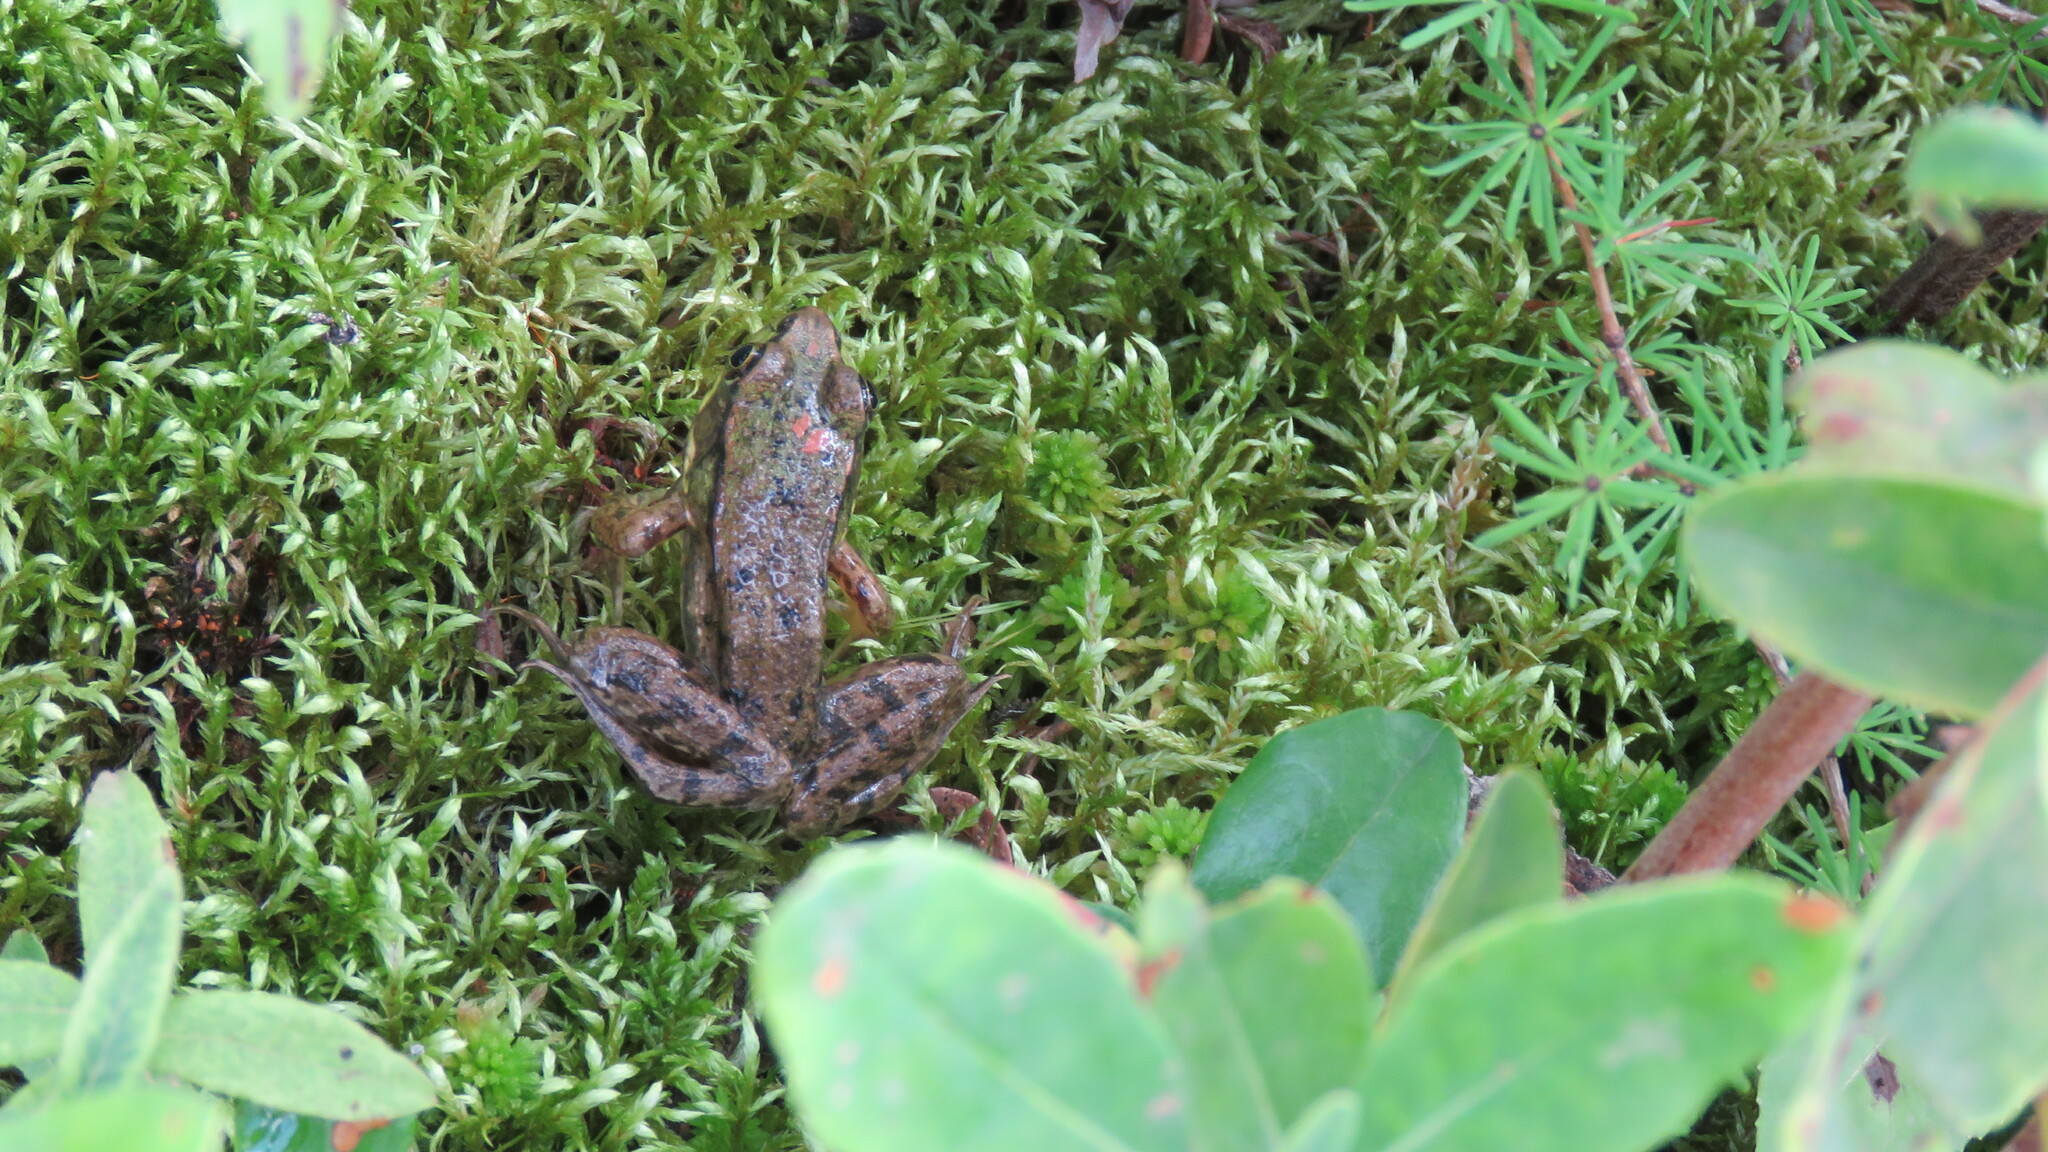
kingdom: Animalia
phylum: Chordata
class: Amphibia
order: Anura
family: Ranidae
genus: Lithobates
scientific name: Lithobates clamitans
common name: Green frog
